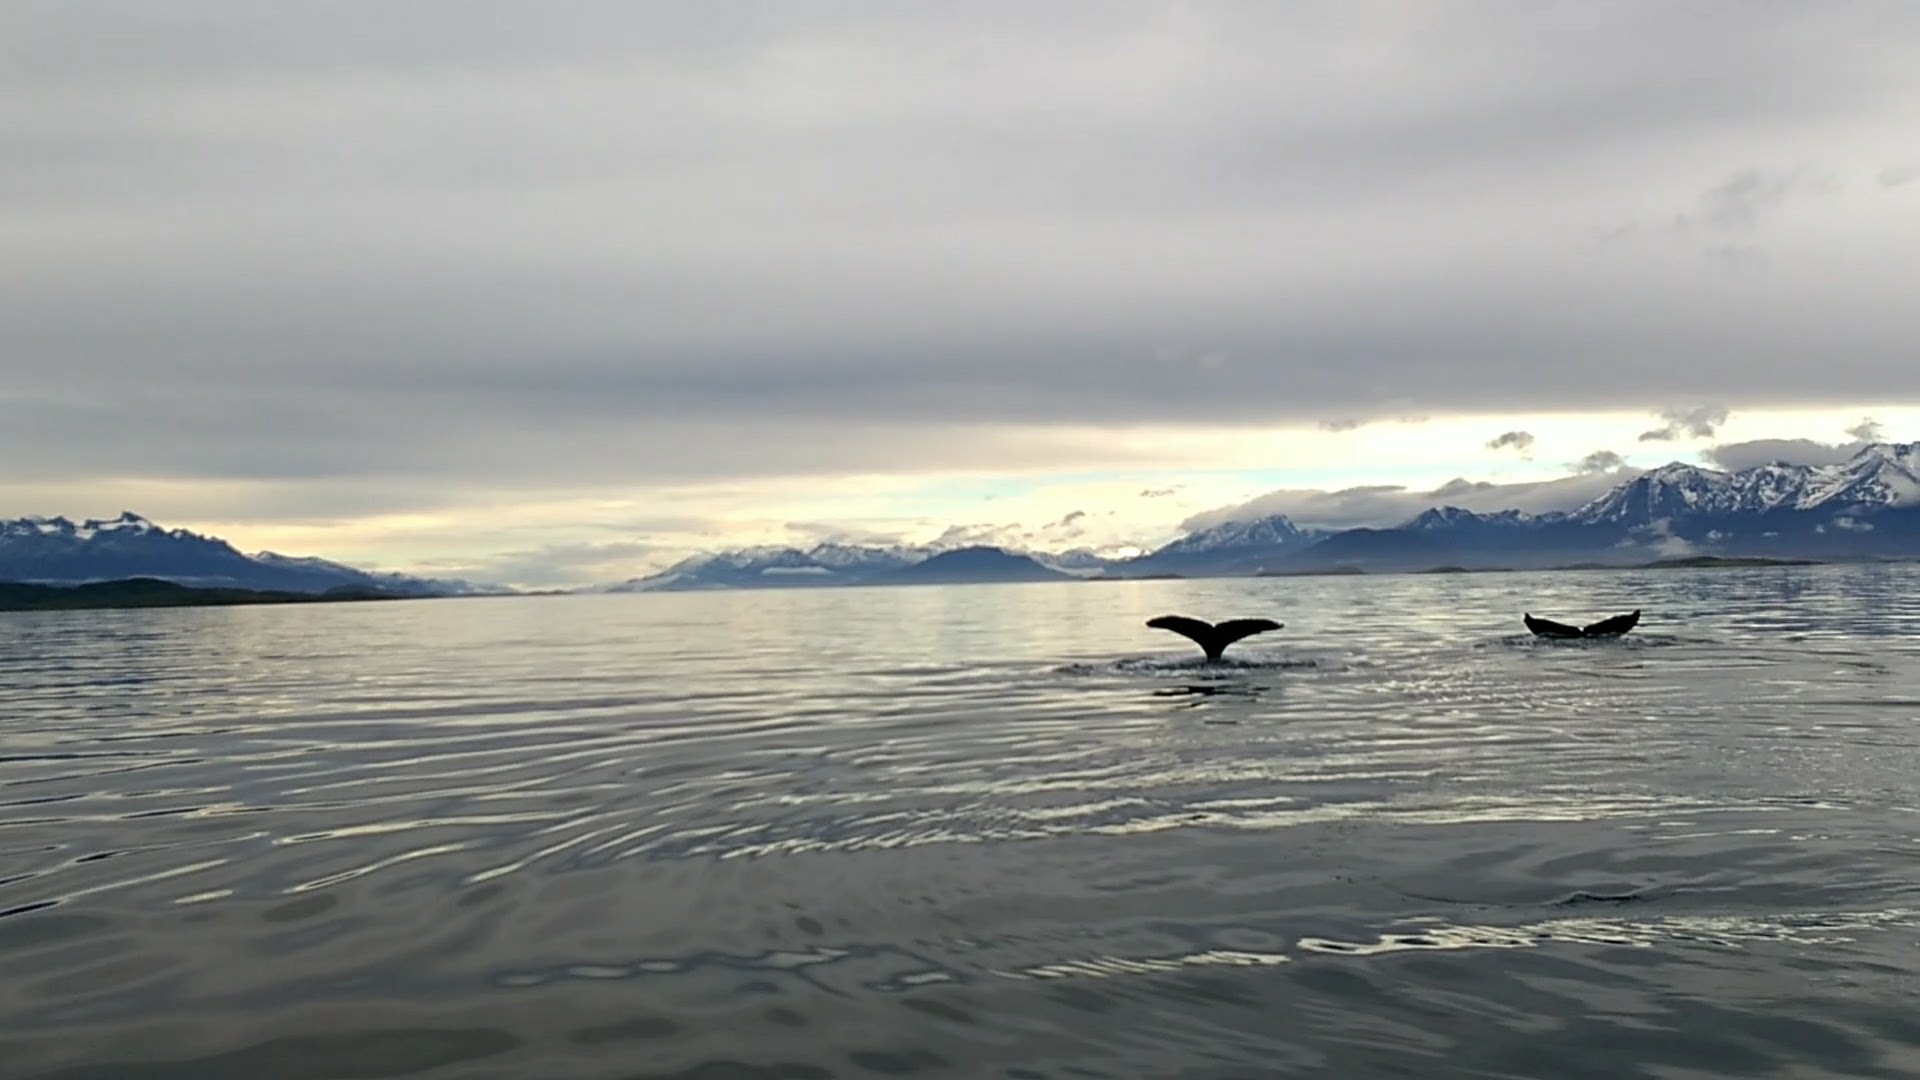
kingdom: Animalia
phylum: Chordata
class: Mammalia
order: Cetacea
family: Balaenopteridae
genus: Megaptera
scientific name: Megaptera novaeangliae
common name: Humpback whale
